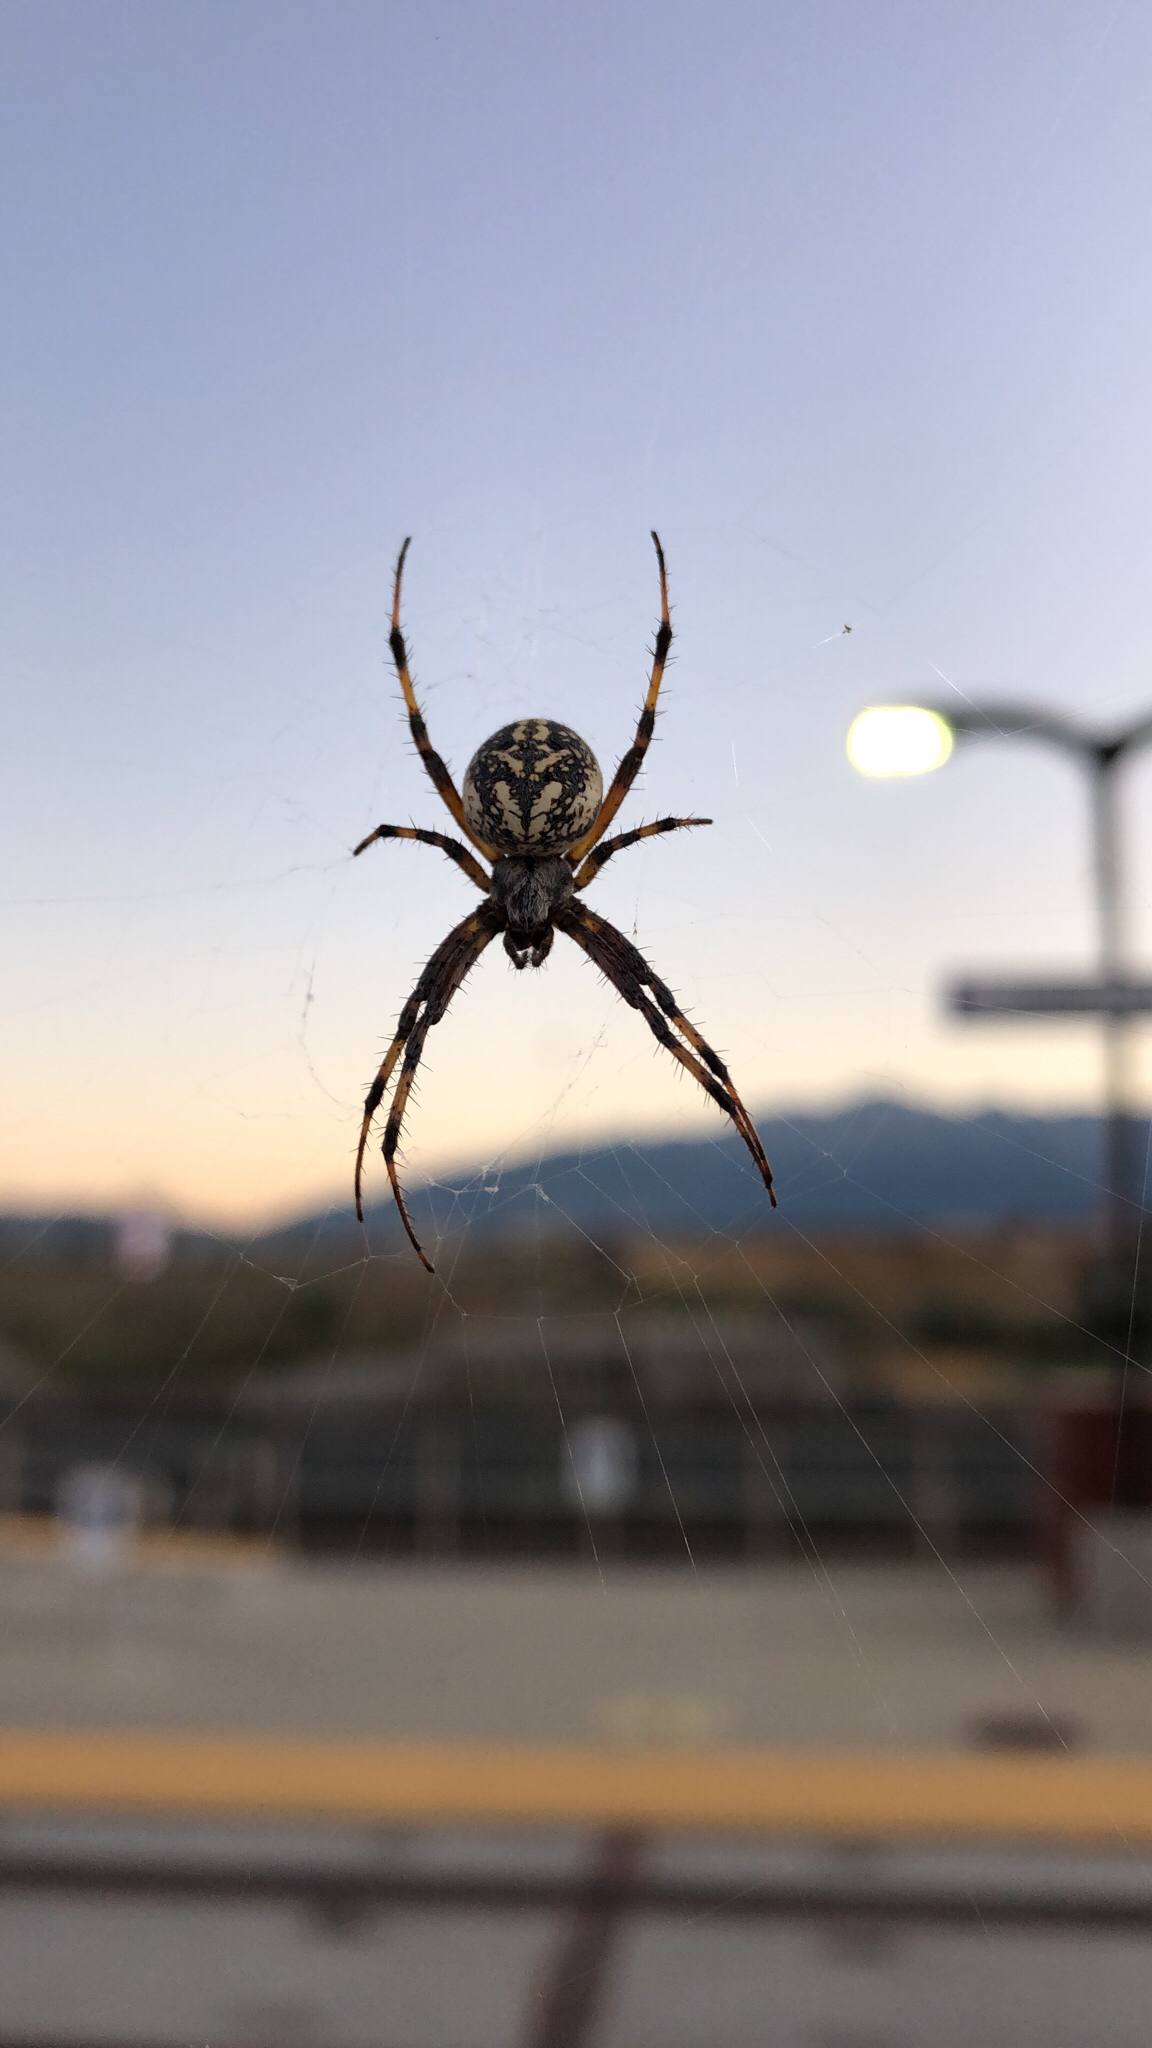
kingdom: Animalia
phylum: Arthropoda
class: Arachnida
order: Araneae
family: Araneidae
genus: Neoscona
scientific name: Neoscona oaxacensis
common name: Orb weavers
